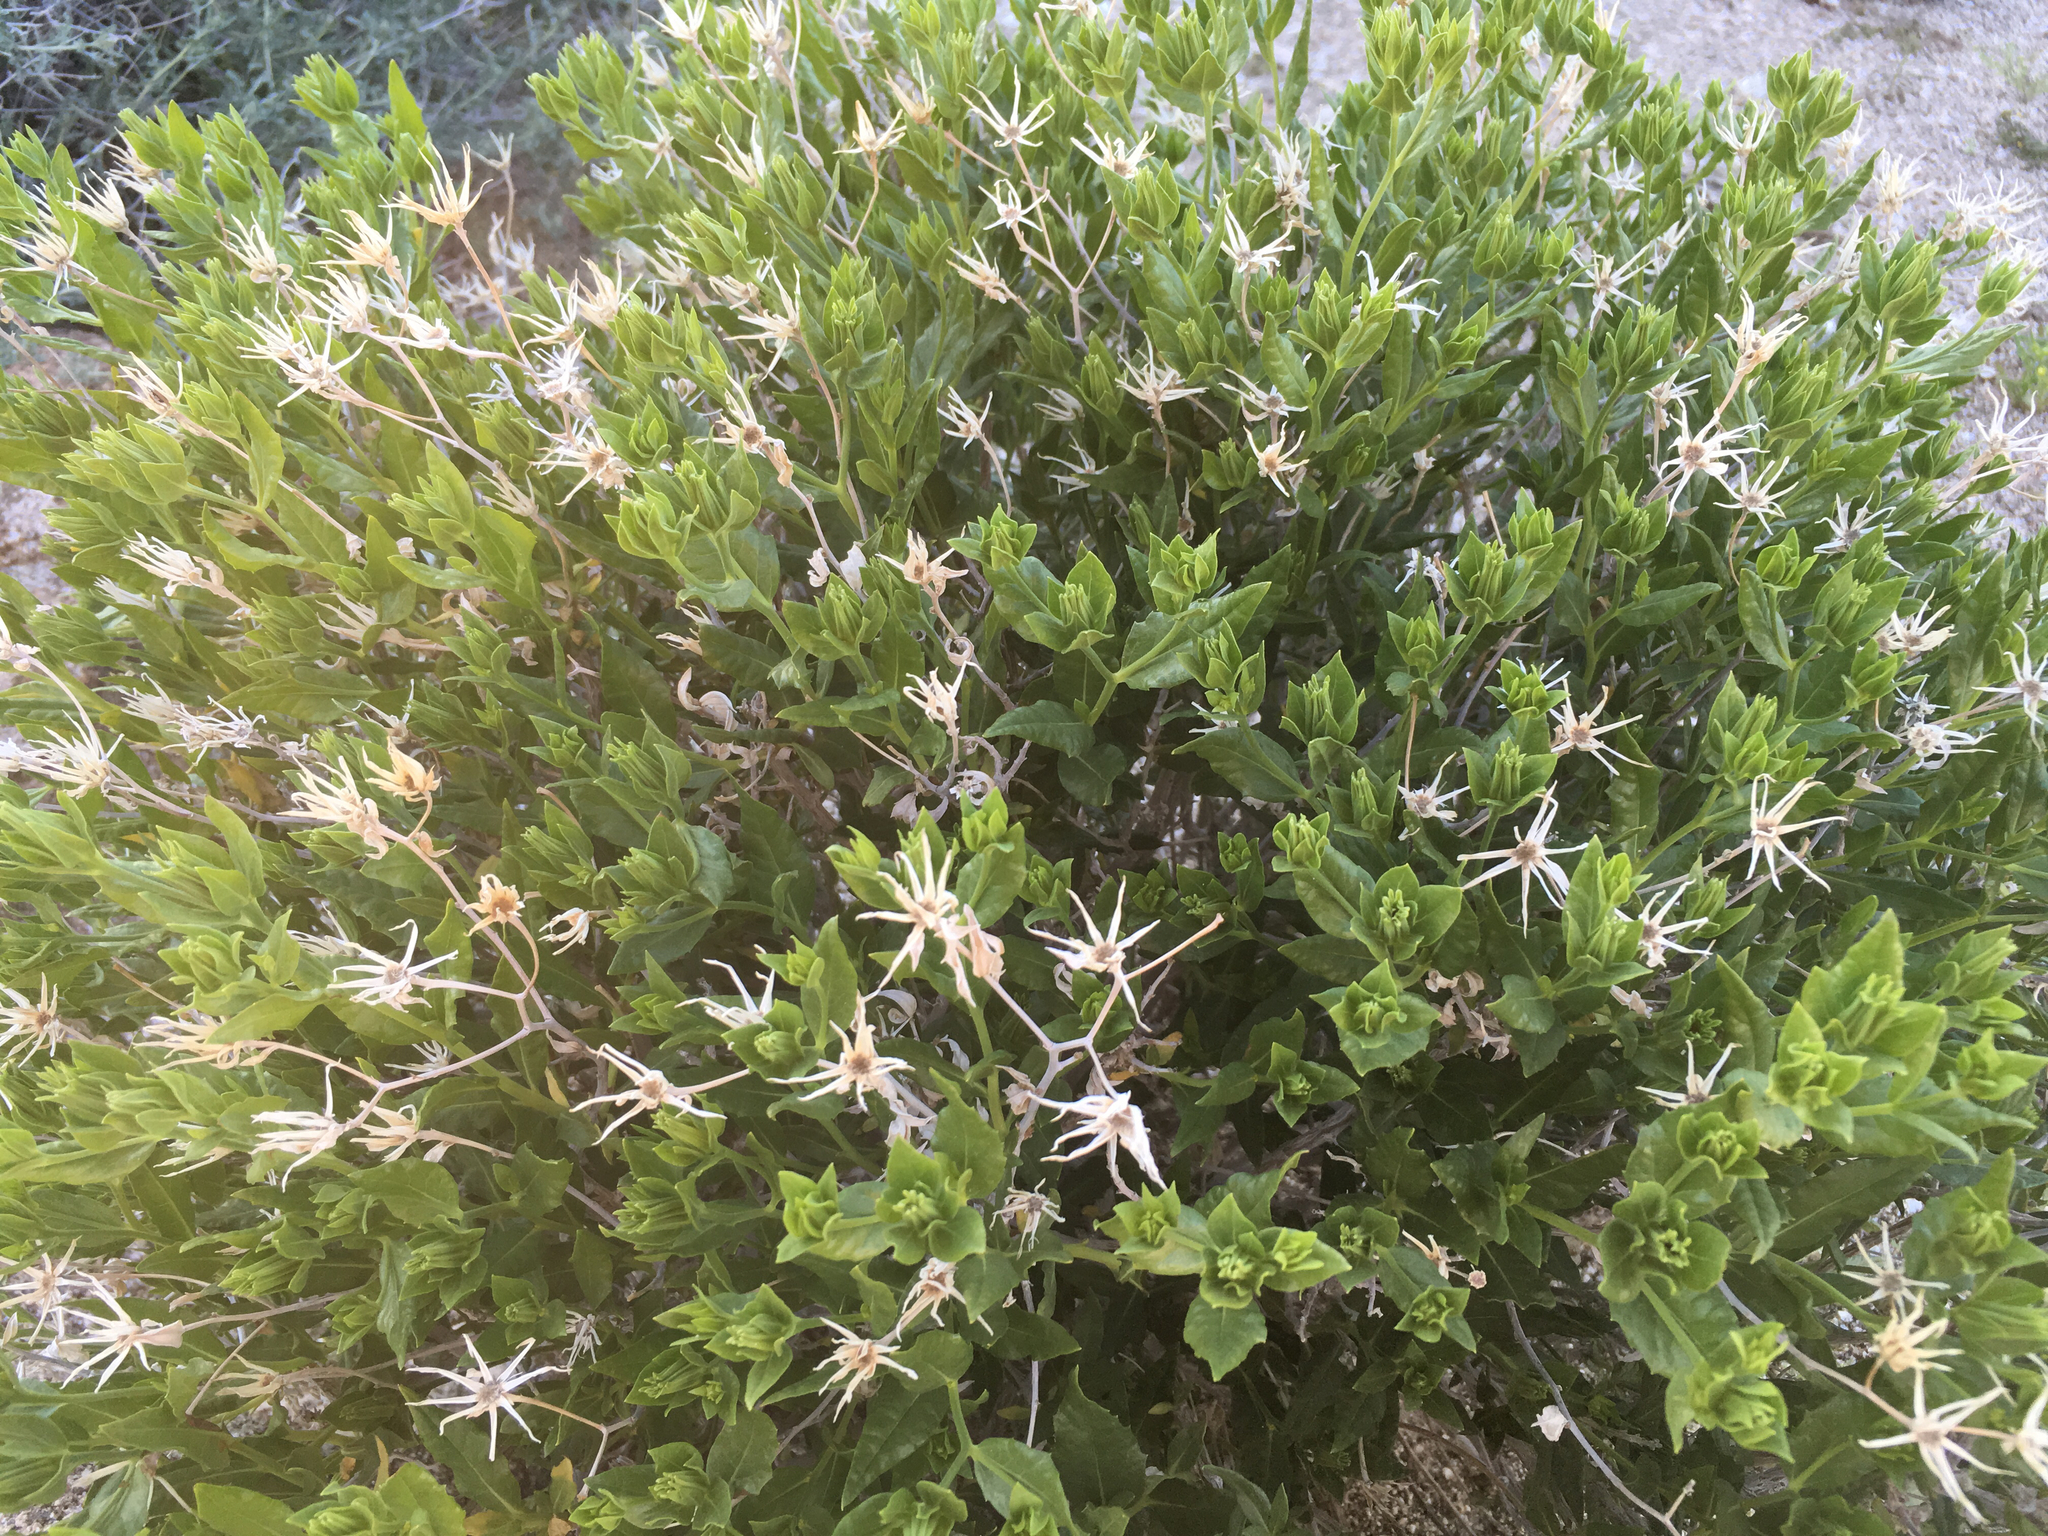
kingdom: Plantae
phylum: Tracheophyta
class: Magnoliopsida
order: Asterales
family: Asteraceae
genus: Trixis
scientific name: Trixis californica
